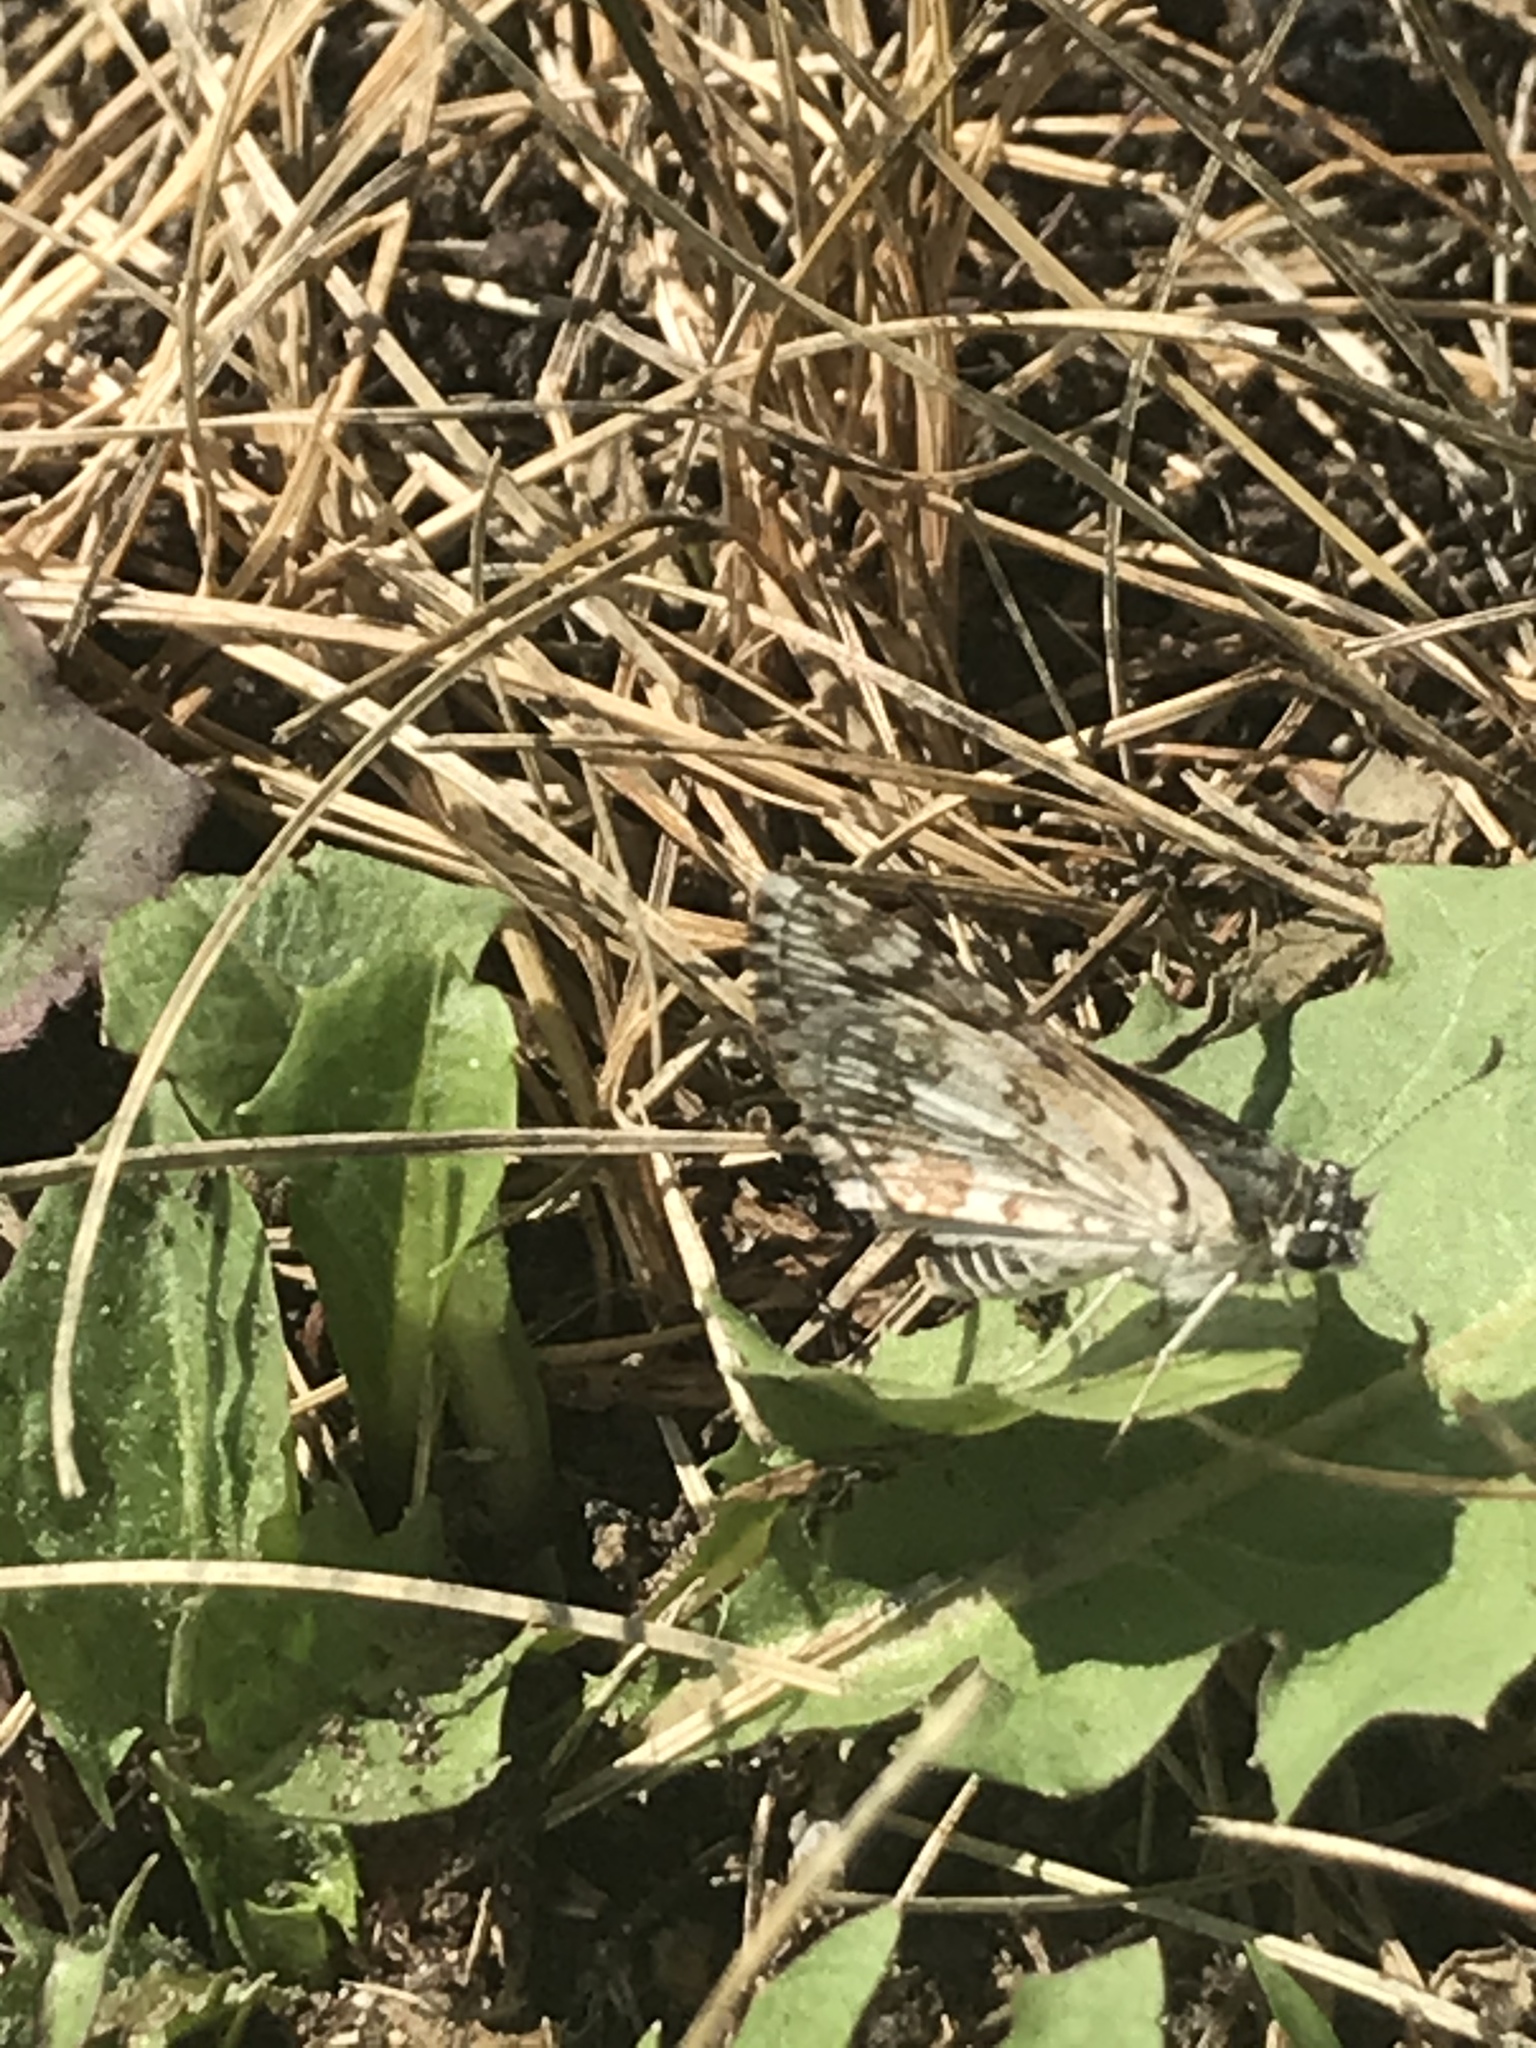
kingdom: Animalia
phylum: Arthropoda
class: Insecta
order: Lepidoptera
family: Hesperiidae
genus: Burnsius
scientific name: Burnsius communis
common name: Common checkered-skipper
